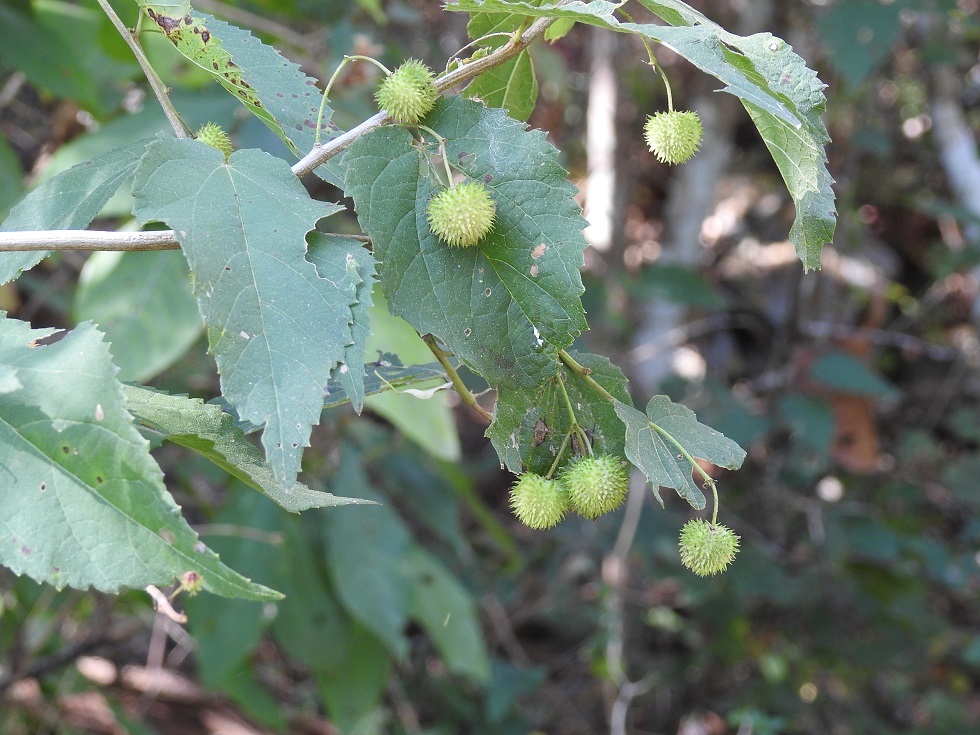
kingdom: Plantae
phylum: Tracheophyta
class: Magnoliopsida
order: Malvales
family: Malvaceae
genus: Ayenia
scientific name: Ayenia micrantha
